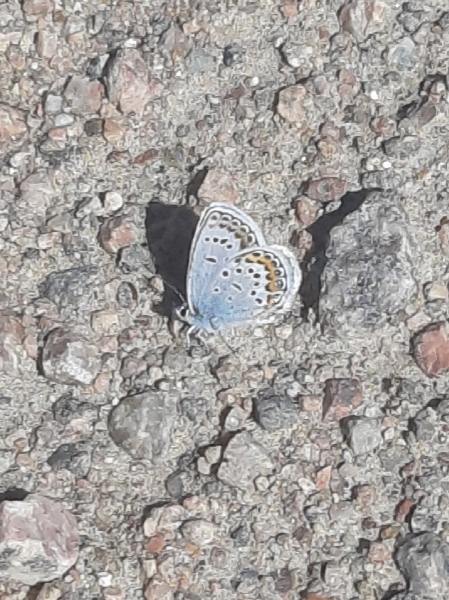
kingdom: Animalia
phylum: Arthropoda
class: Insecta
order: Lepidoptera
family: Lycaenidae
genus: Plebejus
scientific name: Plebejus argus
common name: Silver-studded blue
